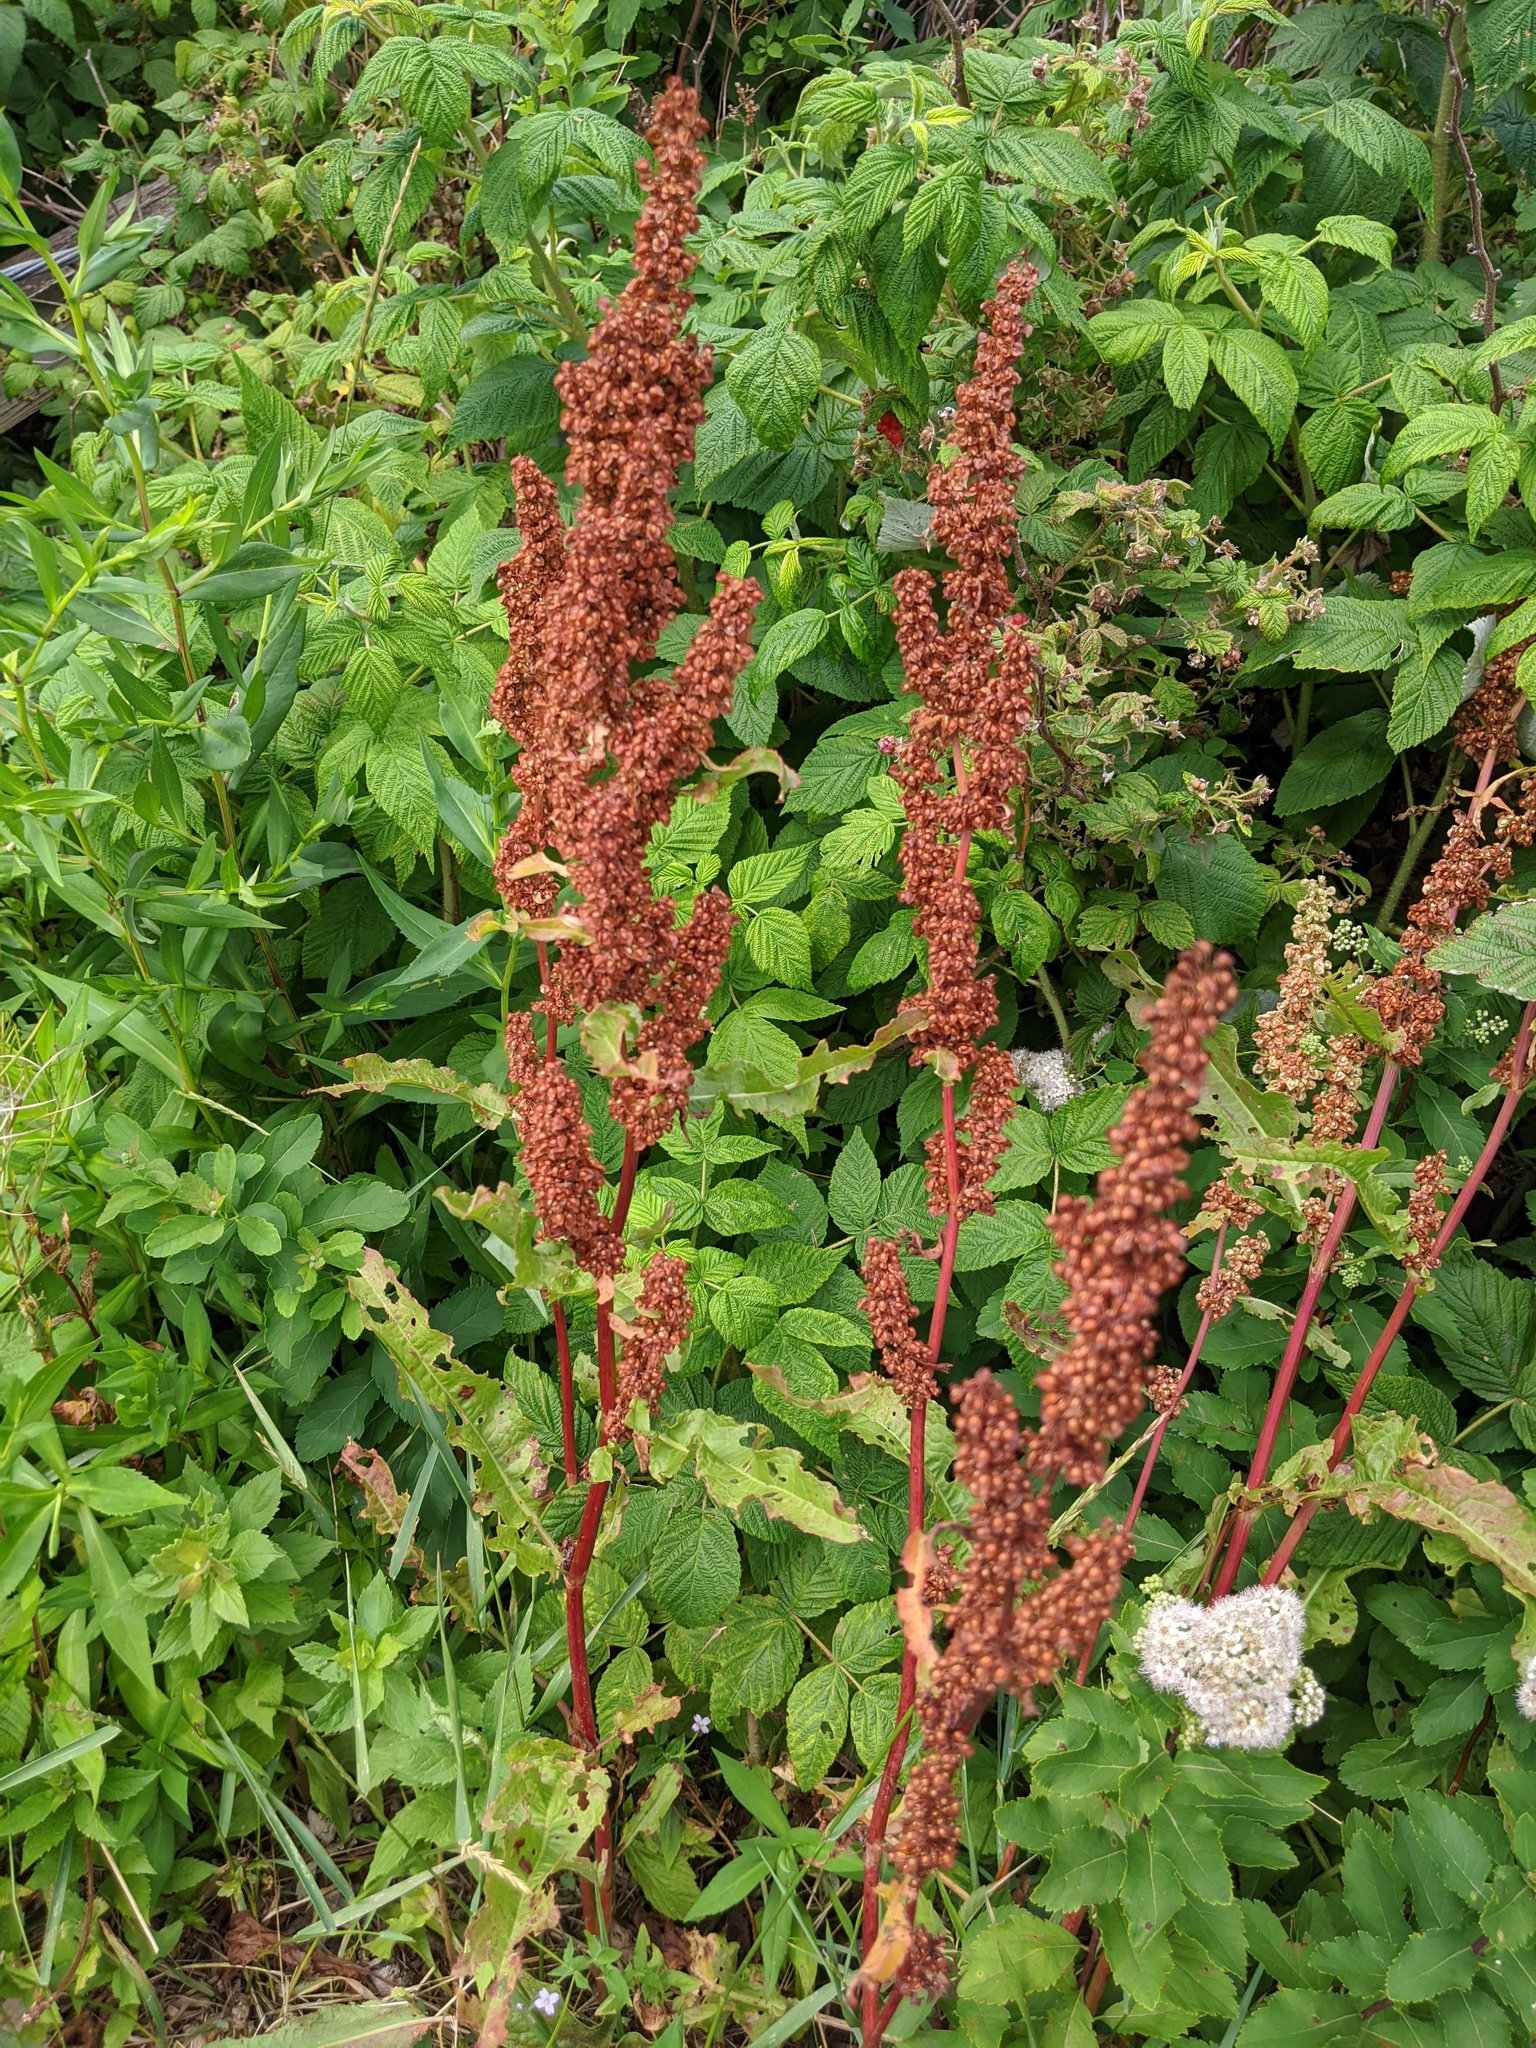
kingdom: Plantae
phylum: Tracheophyta
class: Magnoliopsida
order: Caryophyllales
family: Polygonaceae
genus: Rumex
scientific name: Rumex crispus
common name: Curled dock
